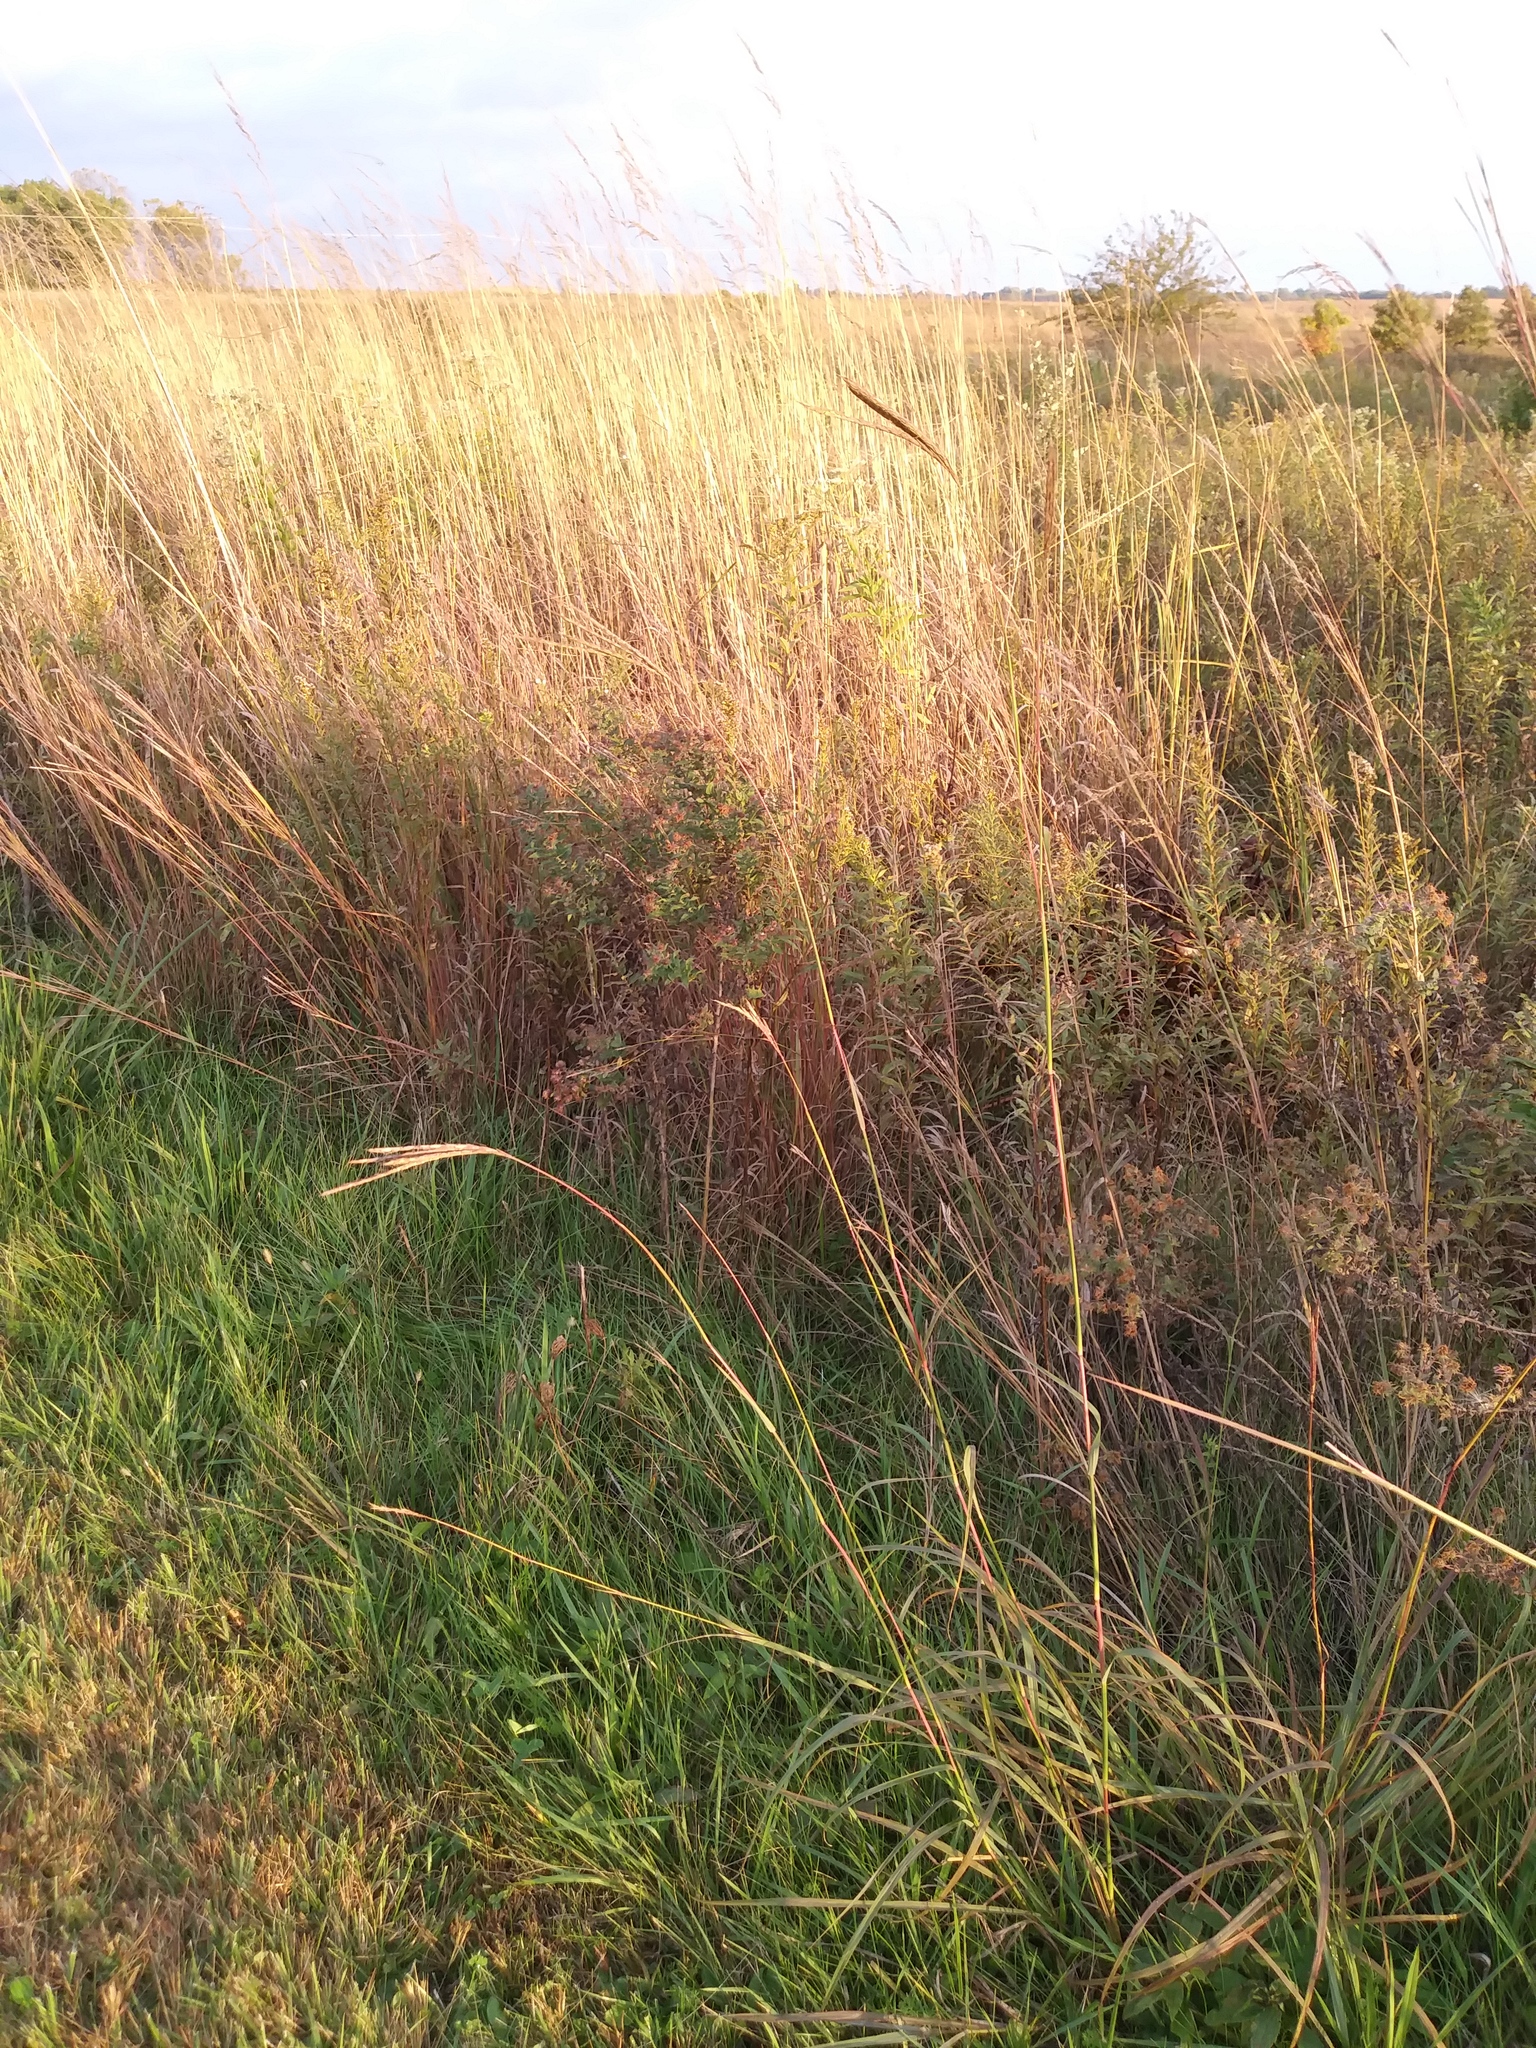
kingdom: Plantae
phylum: Tracheophyta
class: Liliopsida
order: Poales
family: Poaceae
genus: Andropogon
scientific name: Andropogon gerardi
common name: Big bluestem
